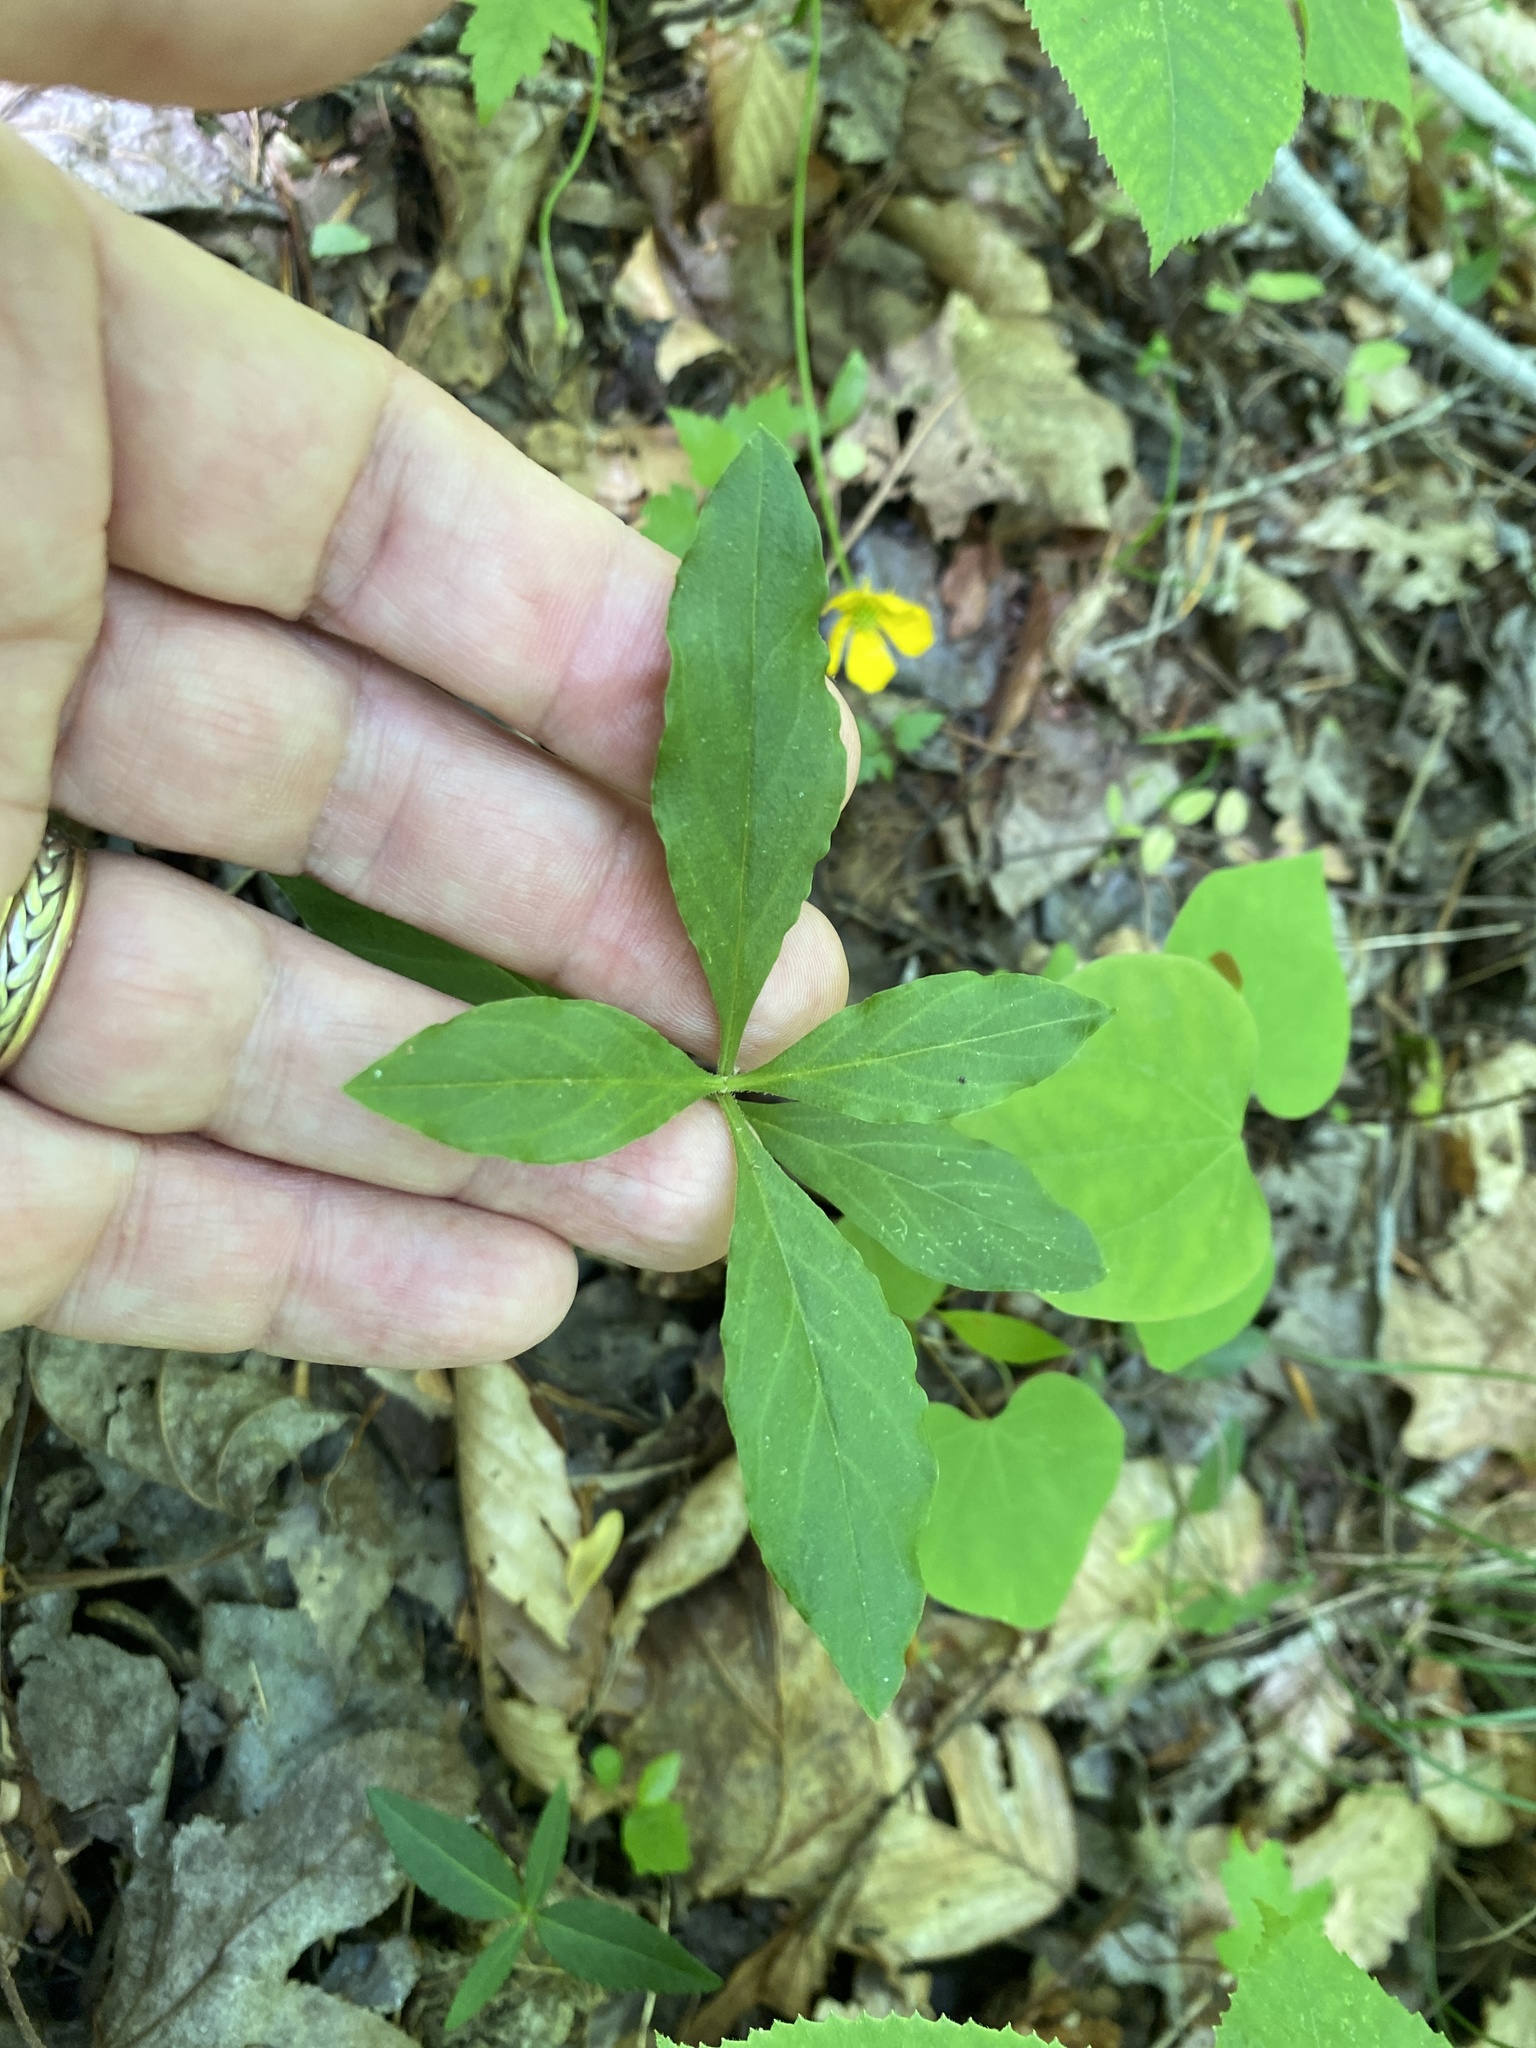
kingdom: Plantae
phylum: Tracheophyta
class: Magnoliopsida
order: Caryophyllales
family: Caryophyllaceae
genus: Stellaria
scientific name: Stellaria pubera
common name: Star chickweed
